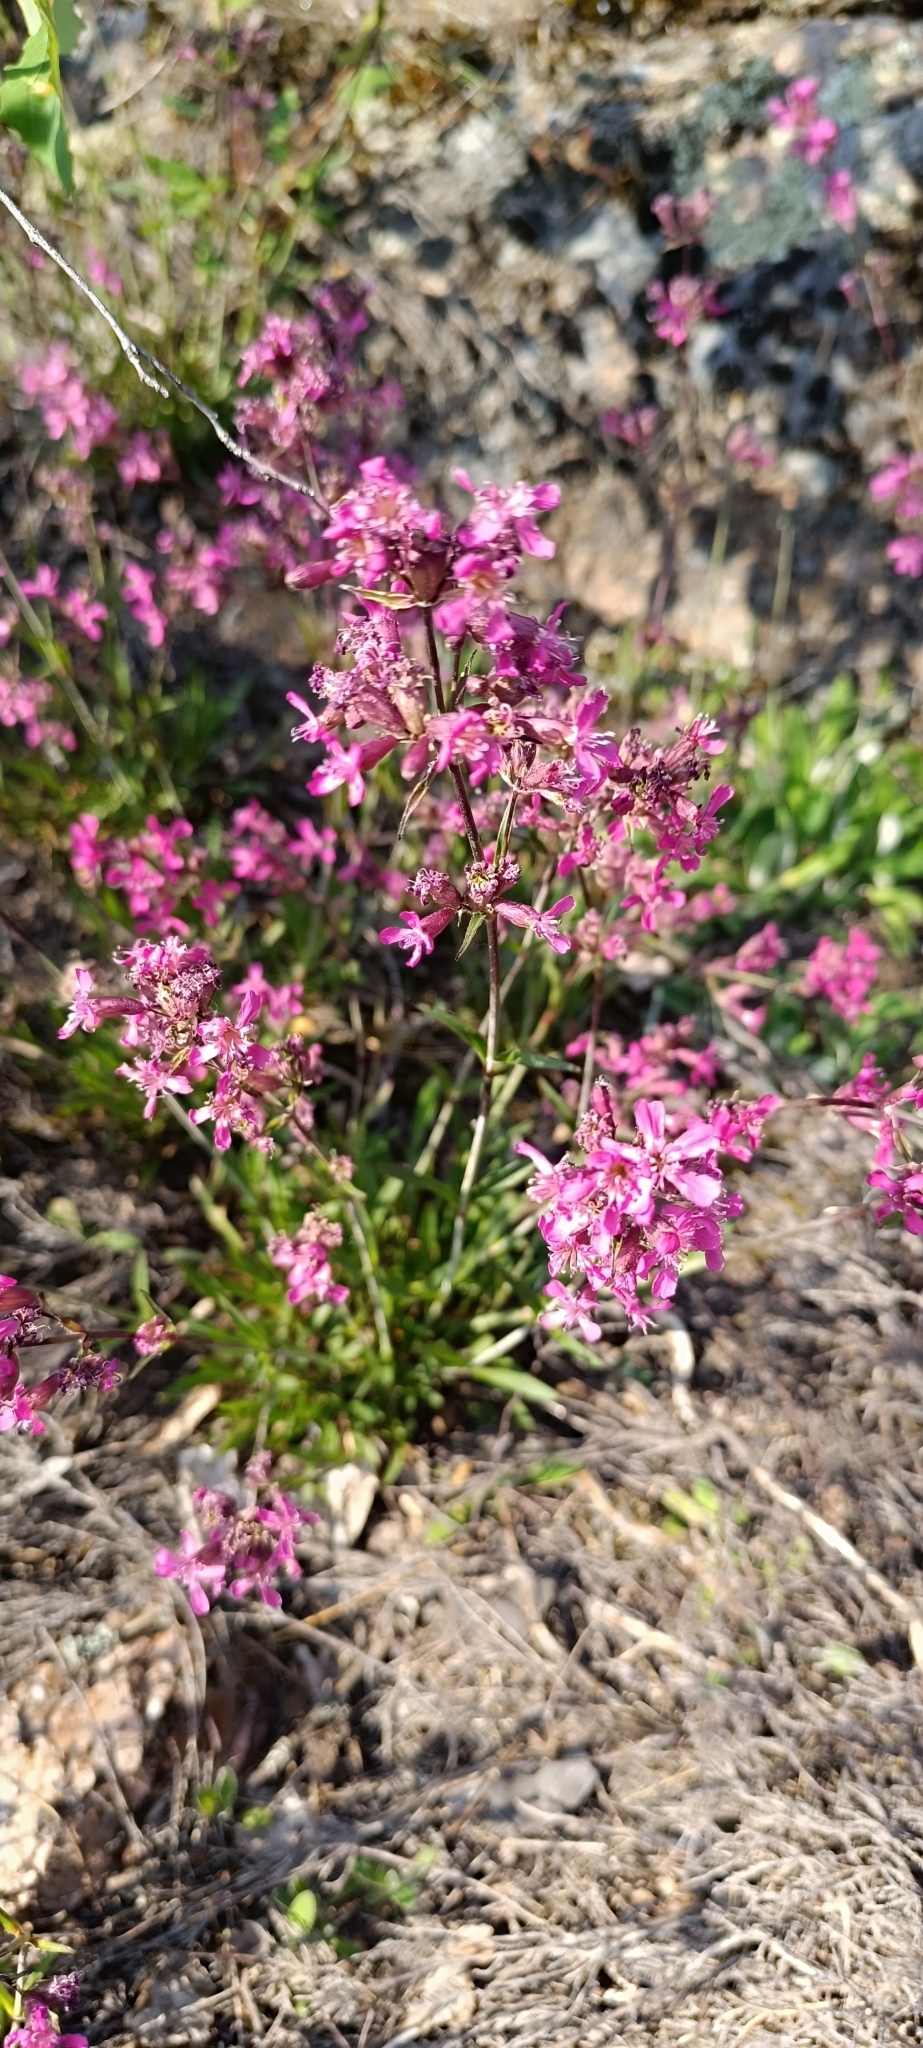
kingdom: Plantae
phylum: Tracheophyta
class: Magnoliopsida
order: Caryophyllales
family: Caryophyllaceae
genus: Viscaria
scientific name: Viscaria vulgaris
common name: Clammy campion
